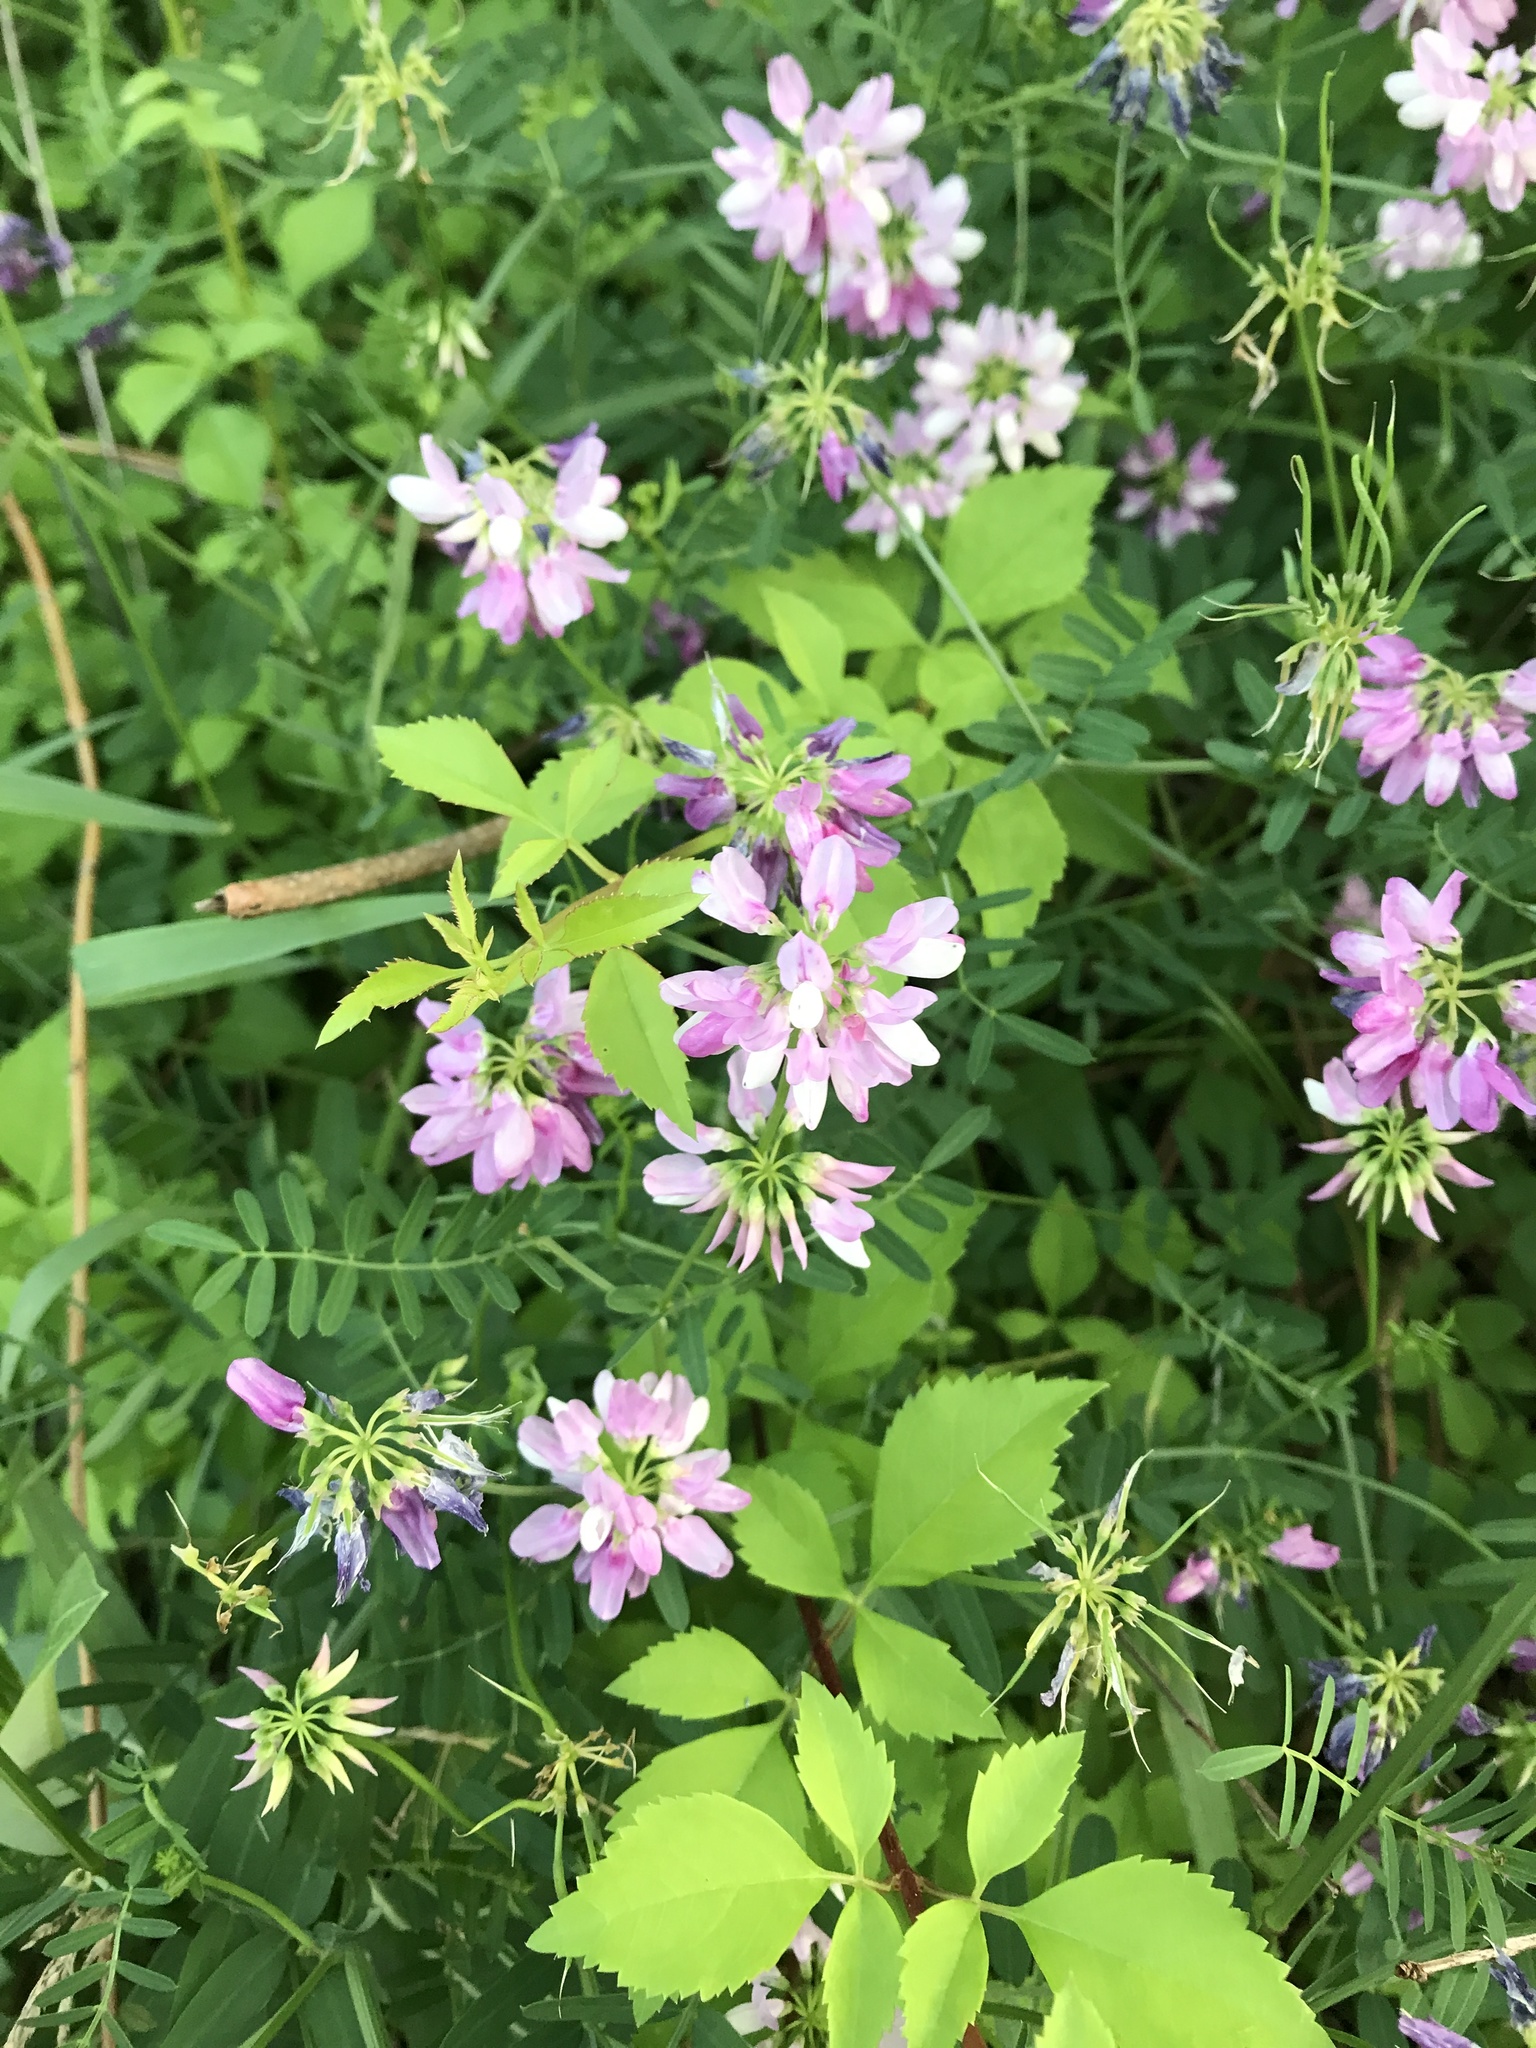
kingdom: Plantae
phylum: Tracheophyta
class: Magnoliopsida
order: Fabales
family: Fabaceae
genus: Coronilla
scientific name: Coronilla varia
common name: Crownvetch
